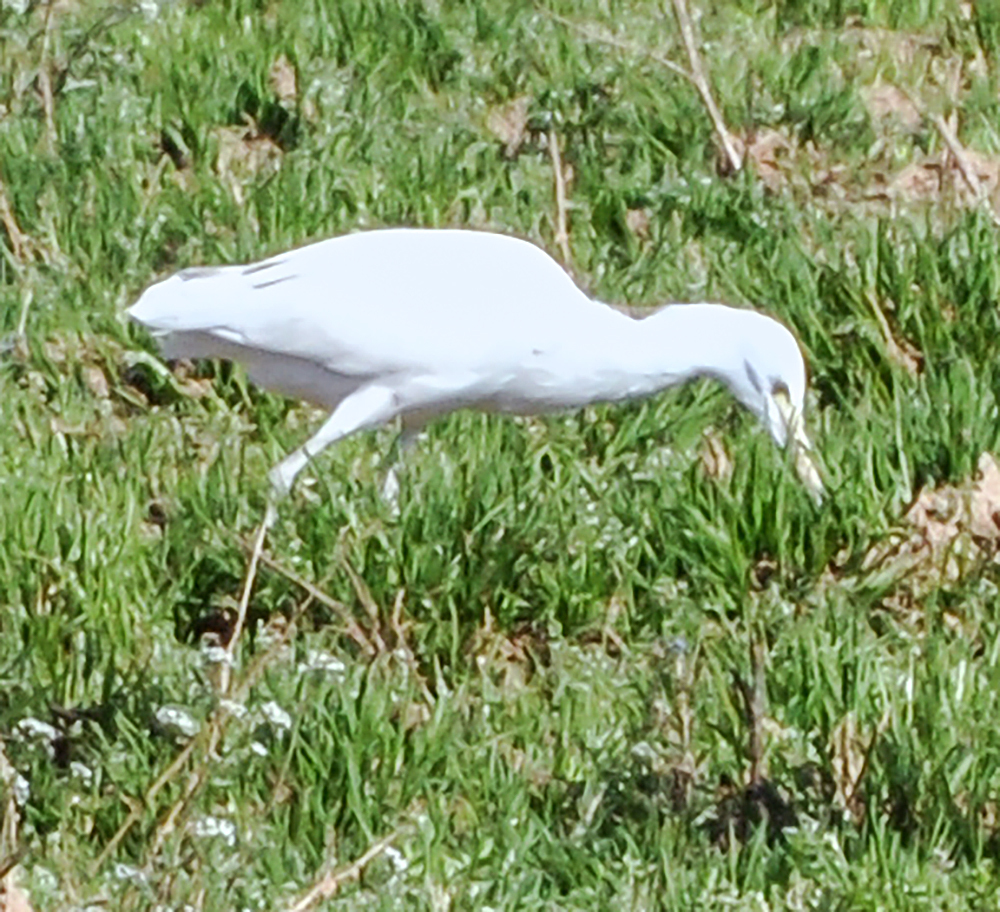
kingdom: Animalia
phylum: Chordata
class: Aves
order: Pelecaniformes
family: Ardeidae
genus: Bubulcus
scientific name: Bubulcus ibis
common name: Cattle egret
